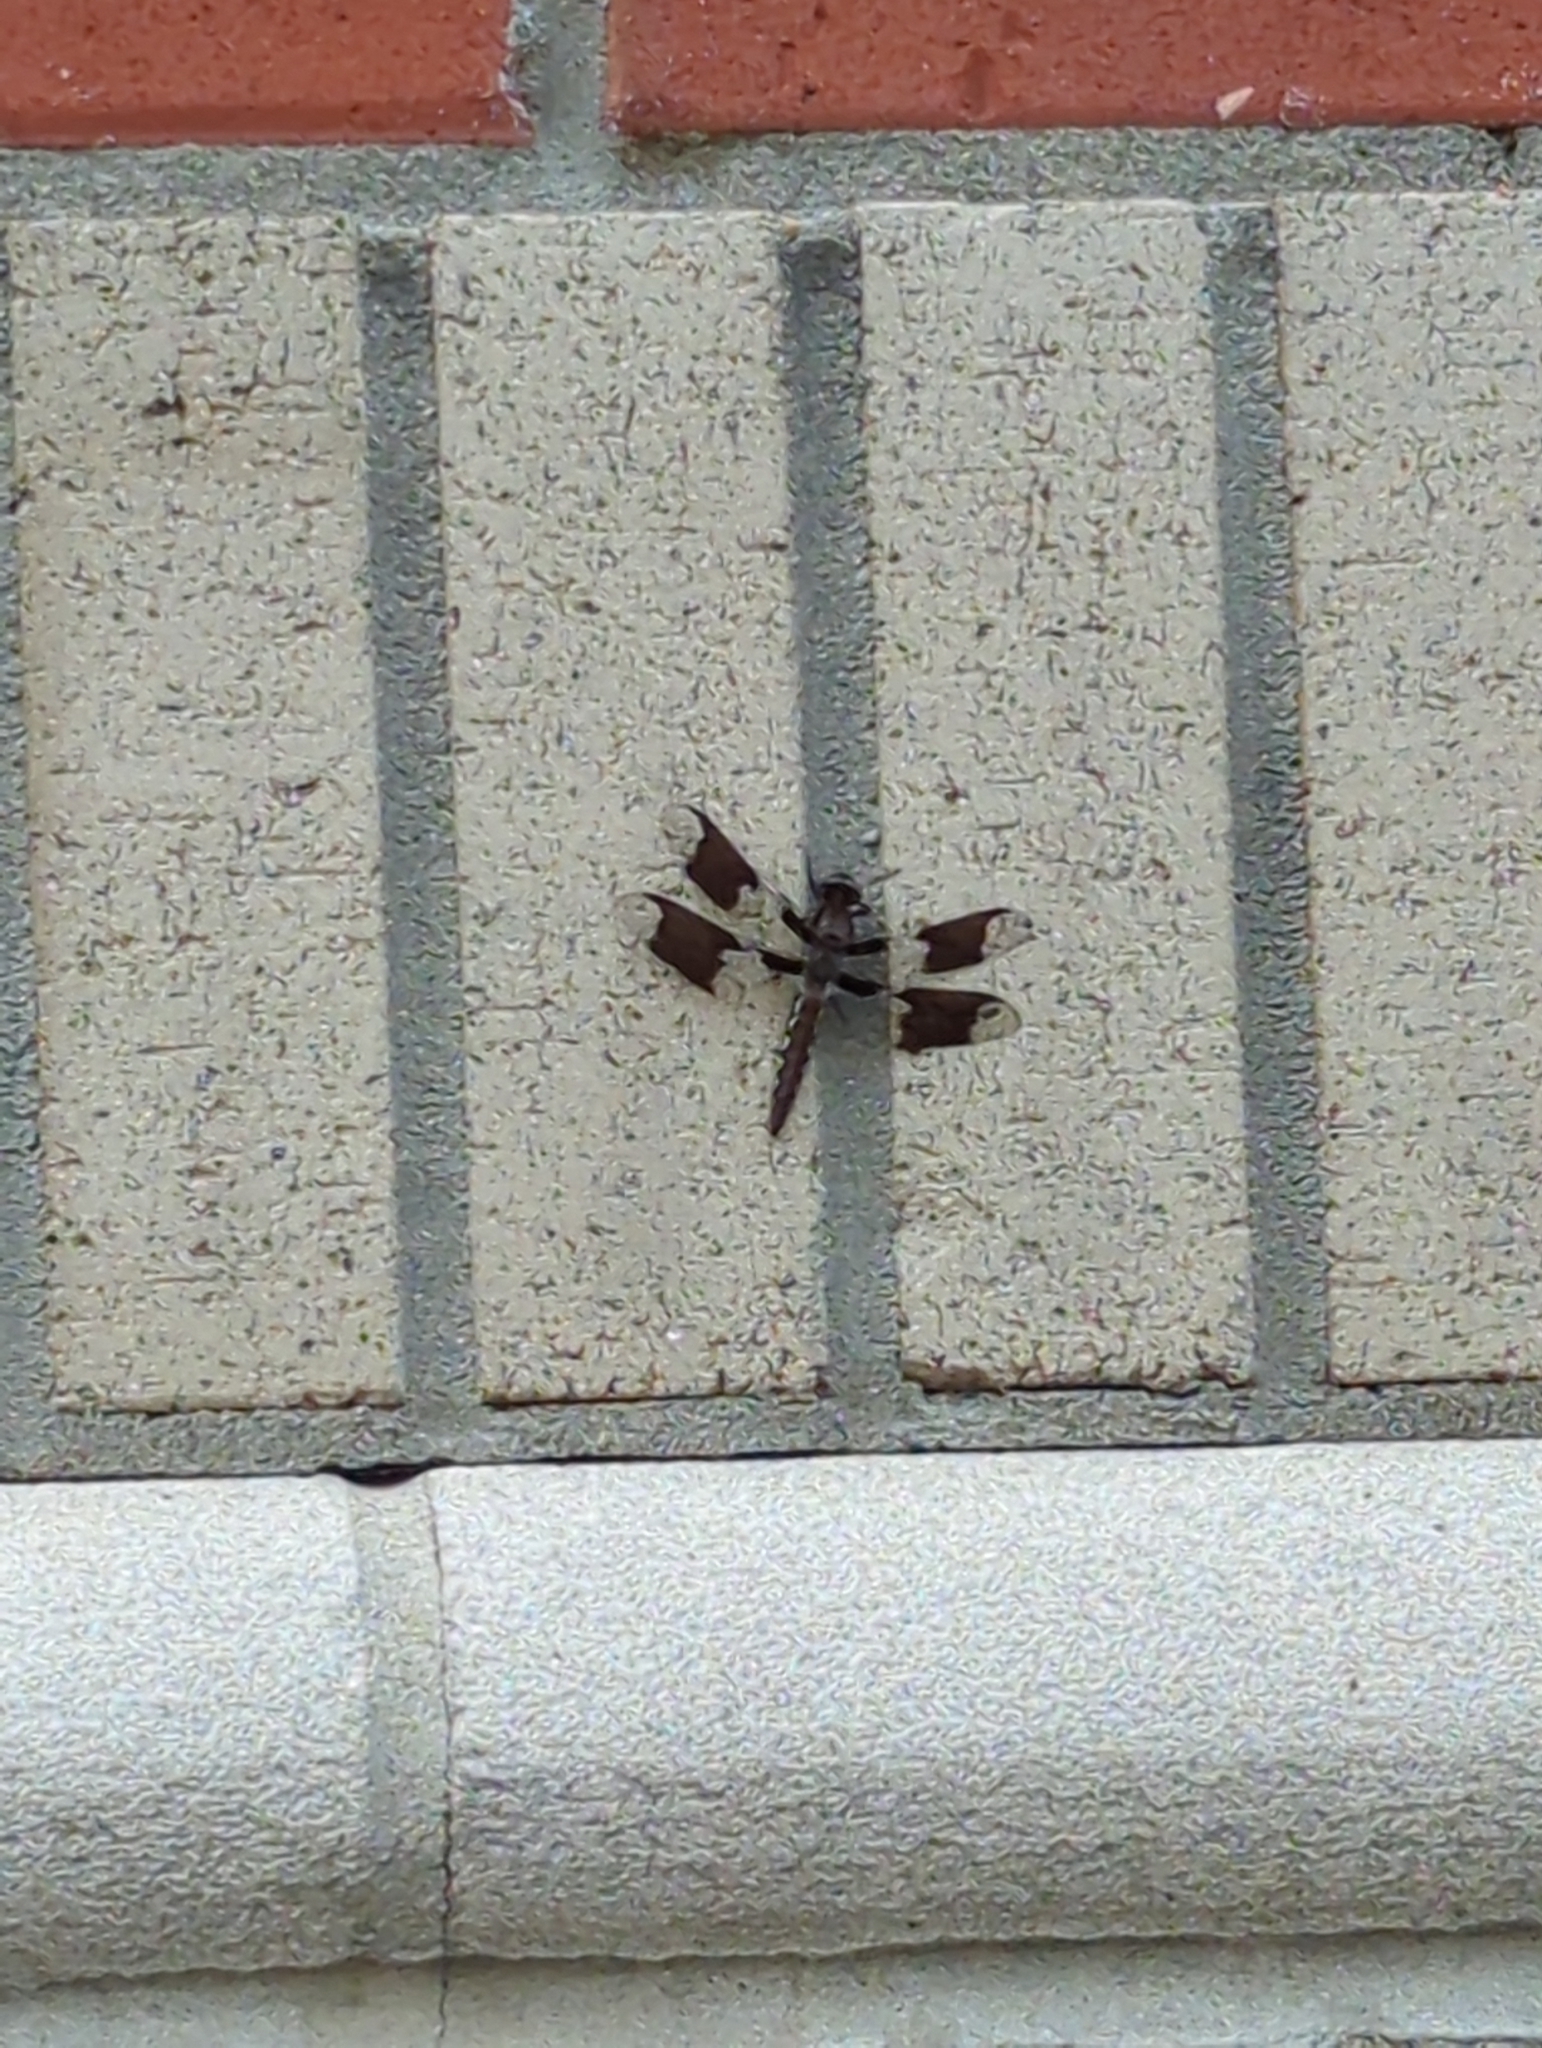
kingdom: Animalia
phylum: Arthropoda
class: Insecta
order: Odonata
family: Libellulidae
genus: Plathemis
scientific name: Plathemis lydia
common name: Common whitetail
